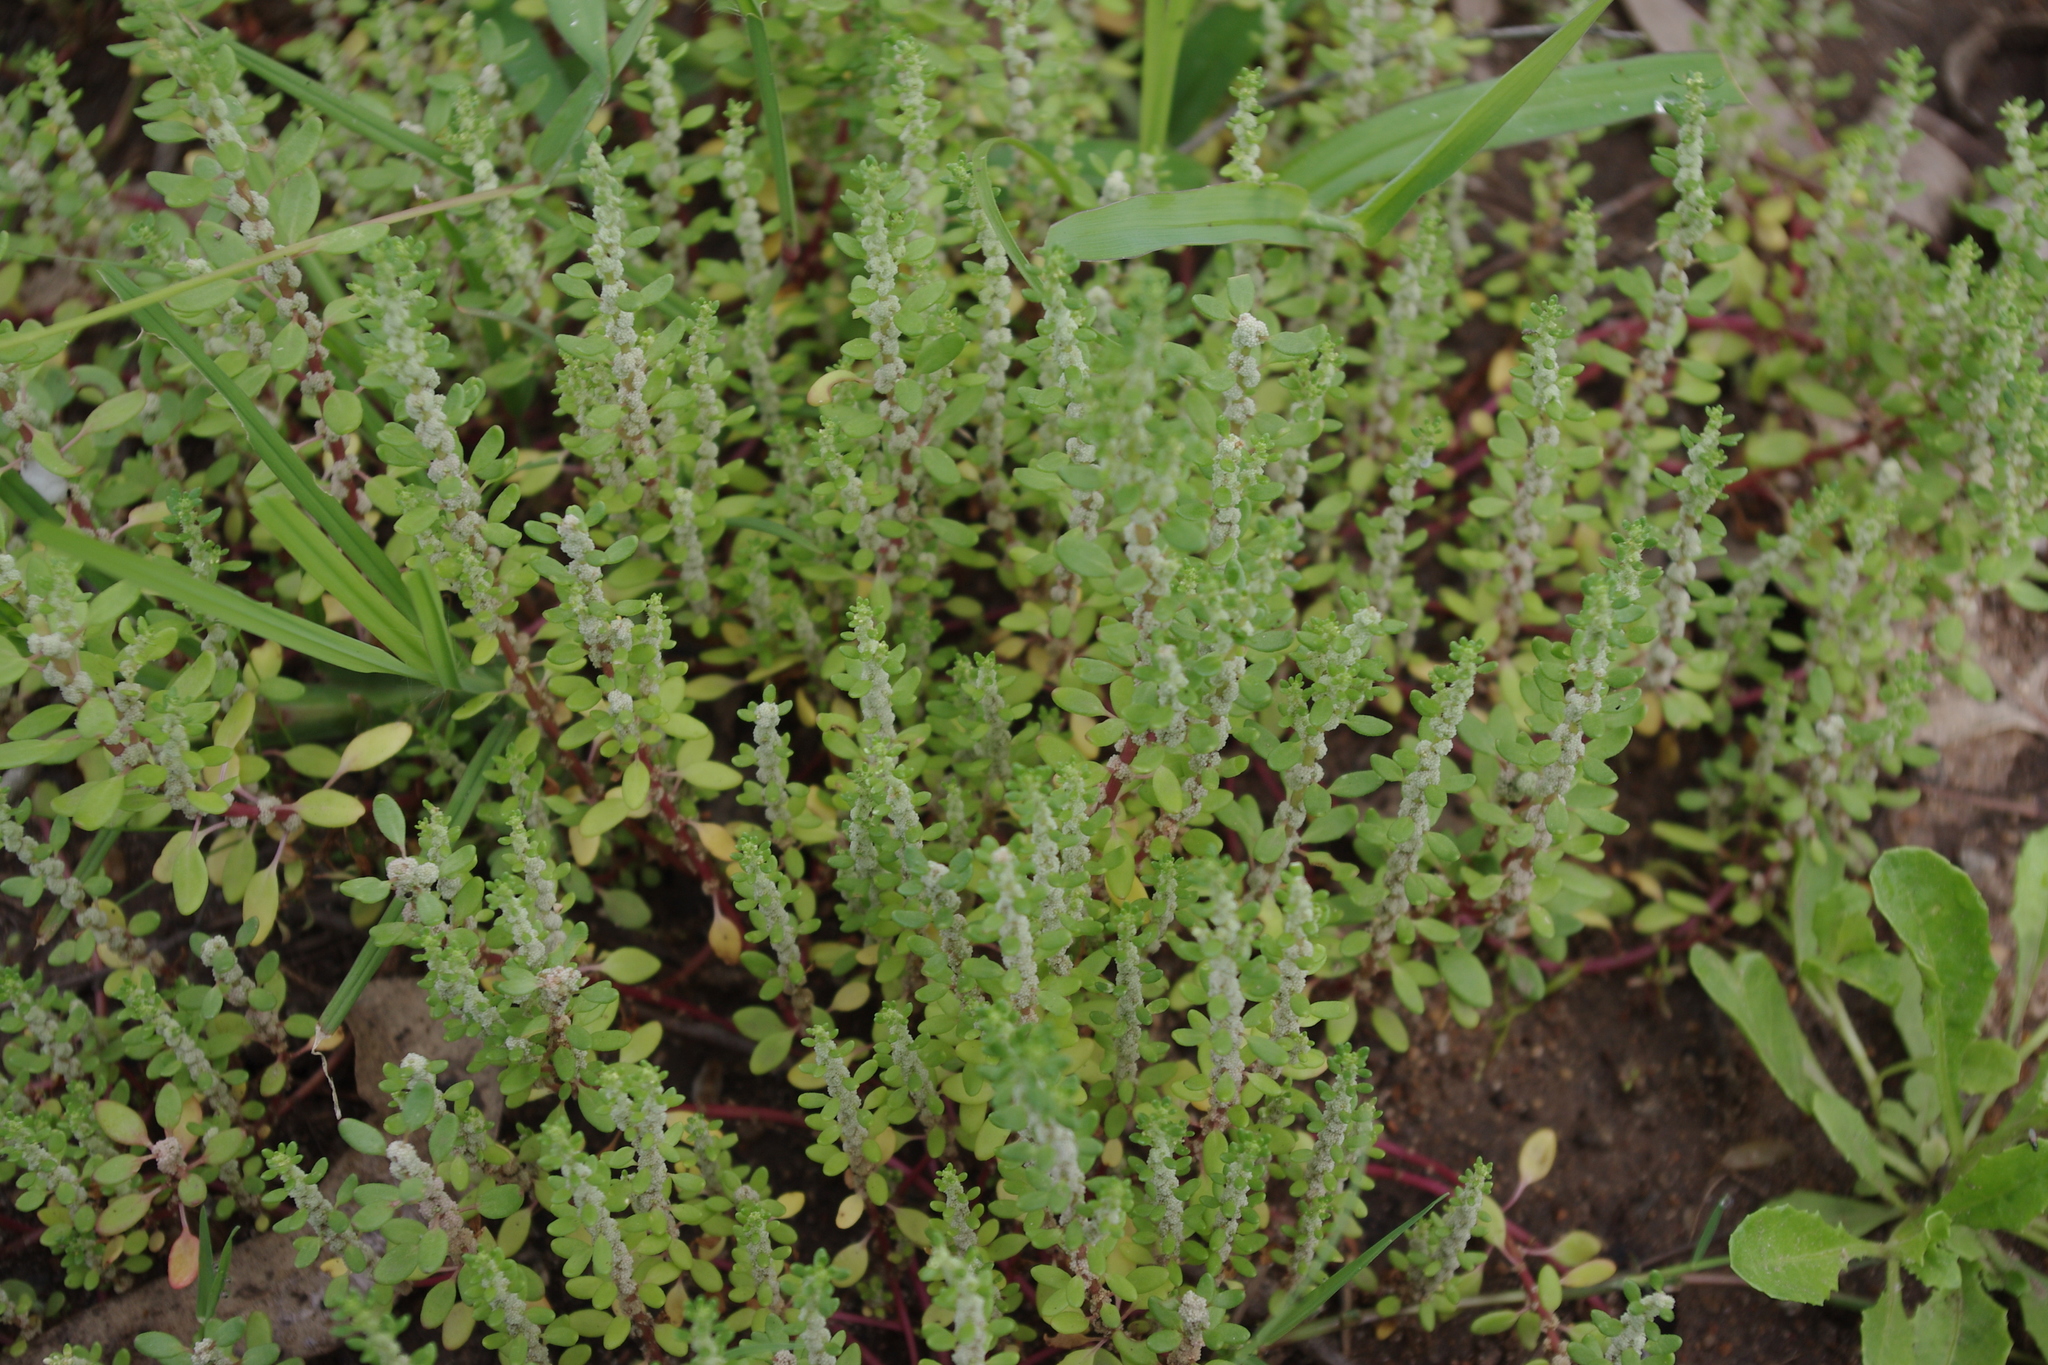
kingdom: Plantae
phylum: Tracheophyta
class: Magnoliopsida
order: Caryophyllales
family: Amaranthaceae
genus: Dysphania
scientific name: Dysphania littoralis
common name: Red crumbweed
